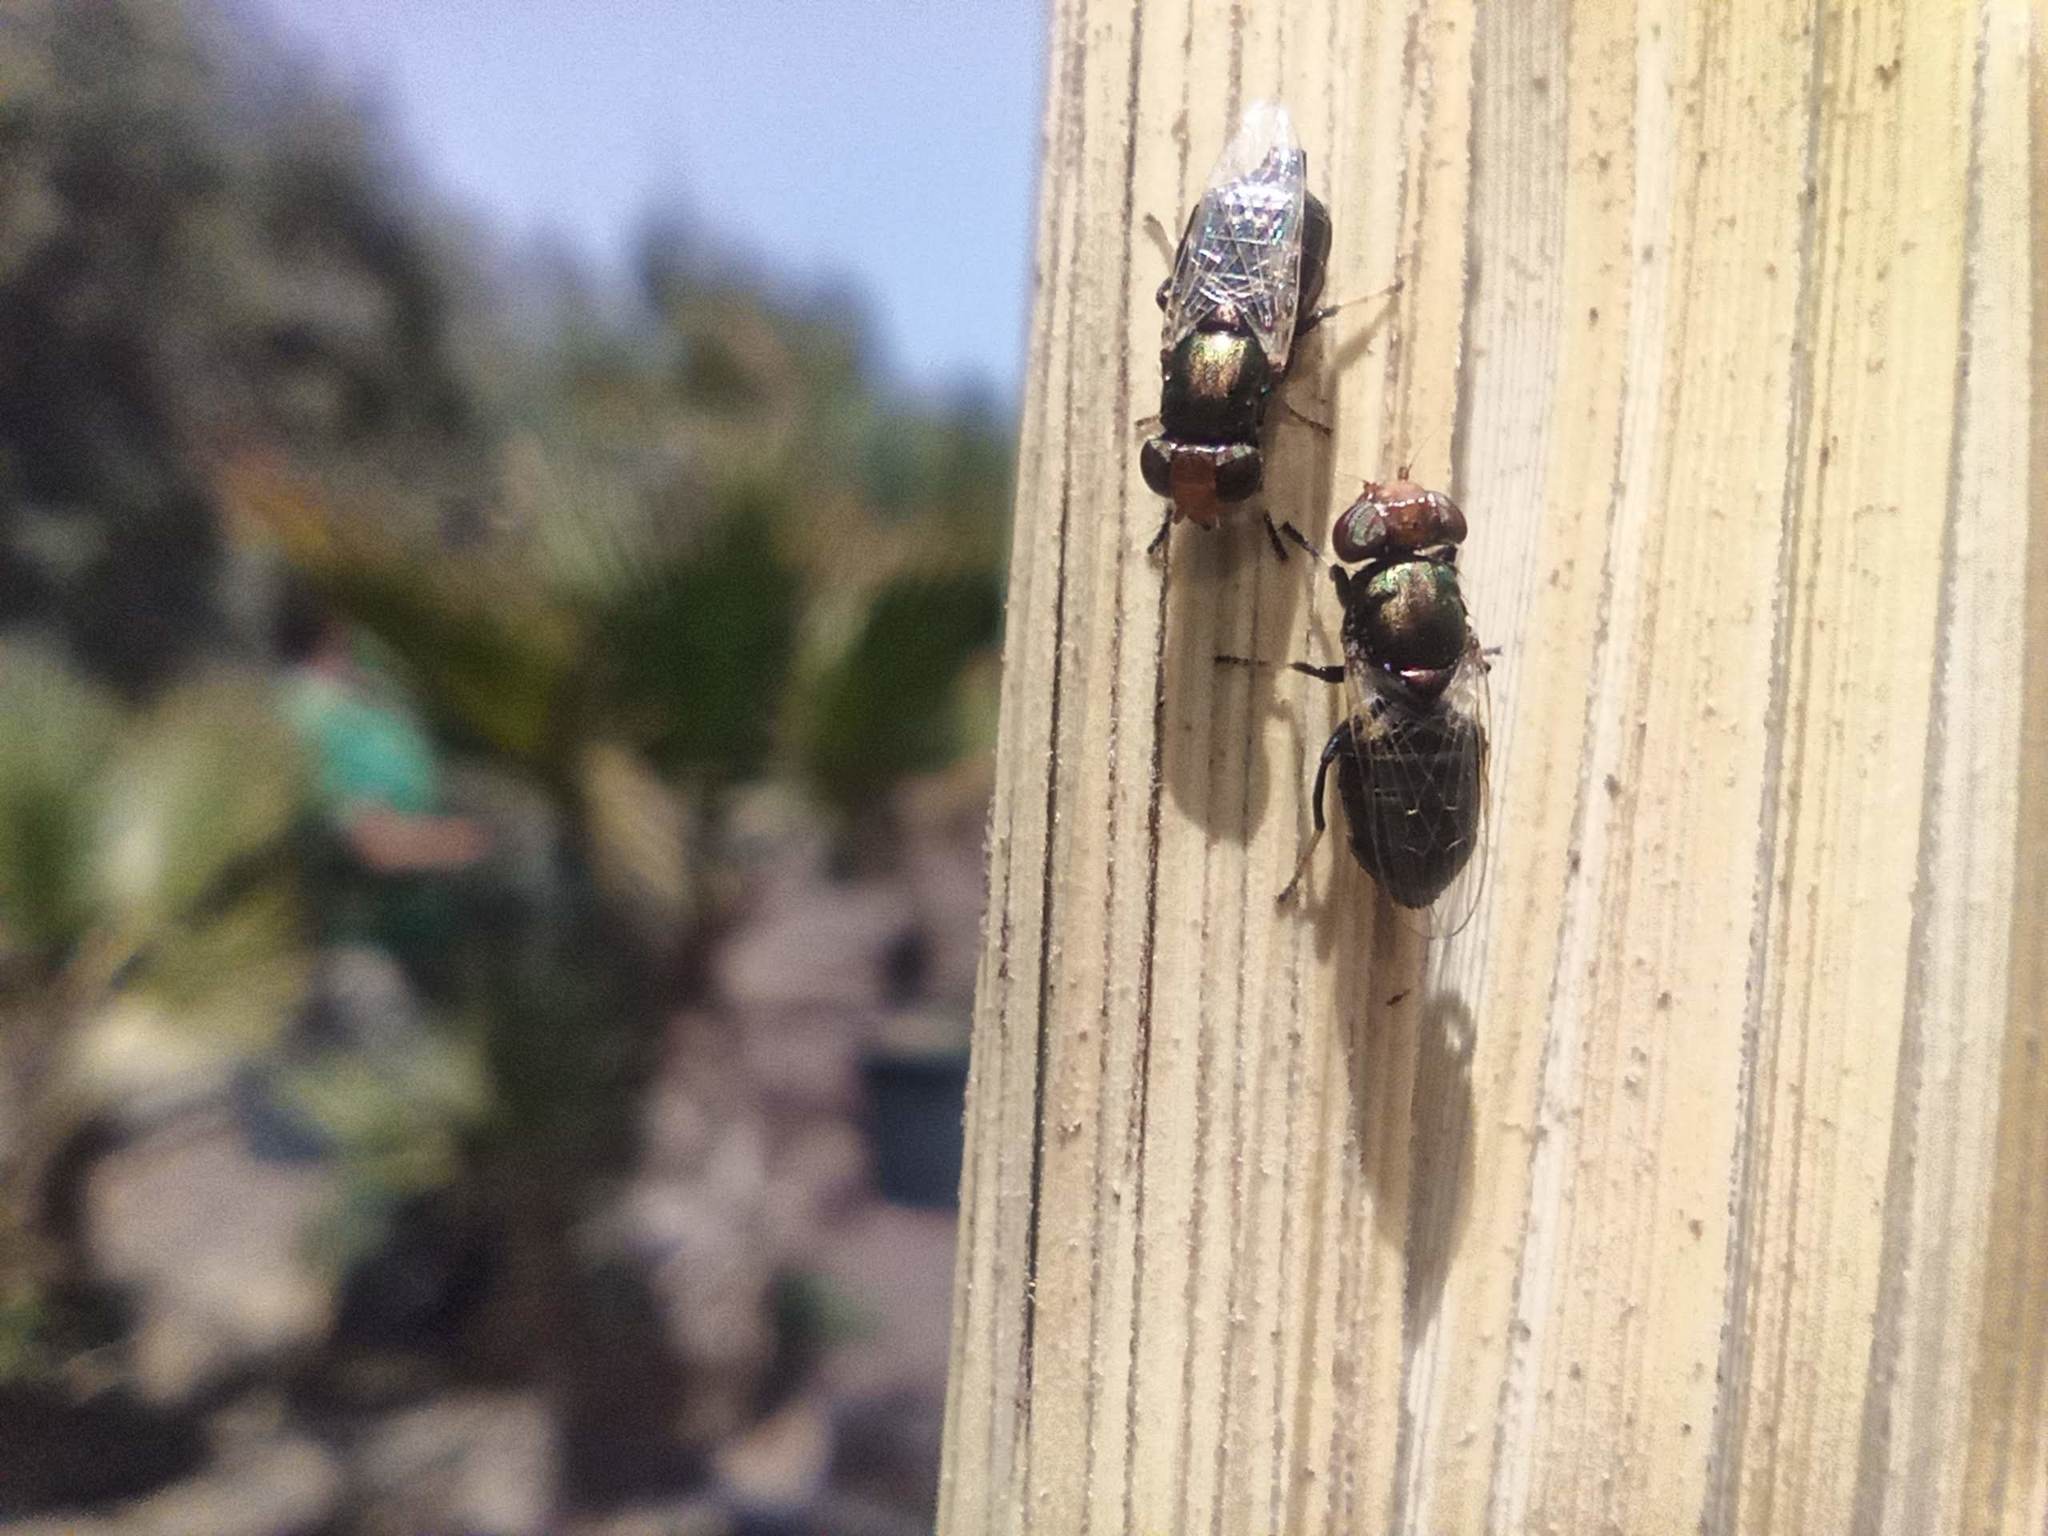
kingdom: Animalia
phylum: Arthropoda
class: Insecta
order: Diptera
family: Ulidiidae
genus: Physiphora
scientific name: Physiphora alceae
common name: Picture-winged fly
